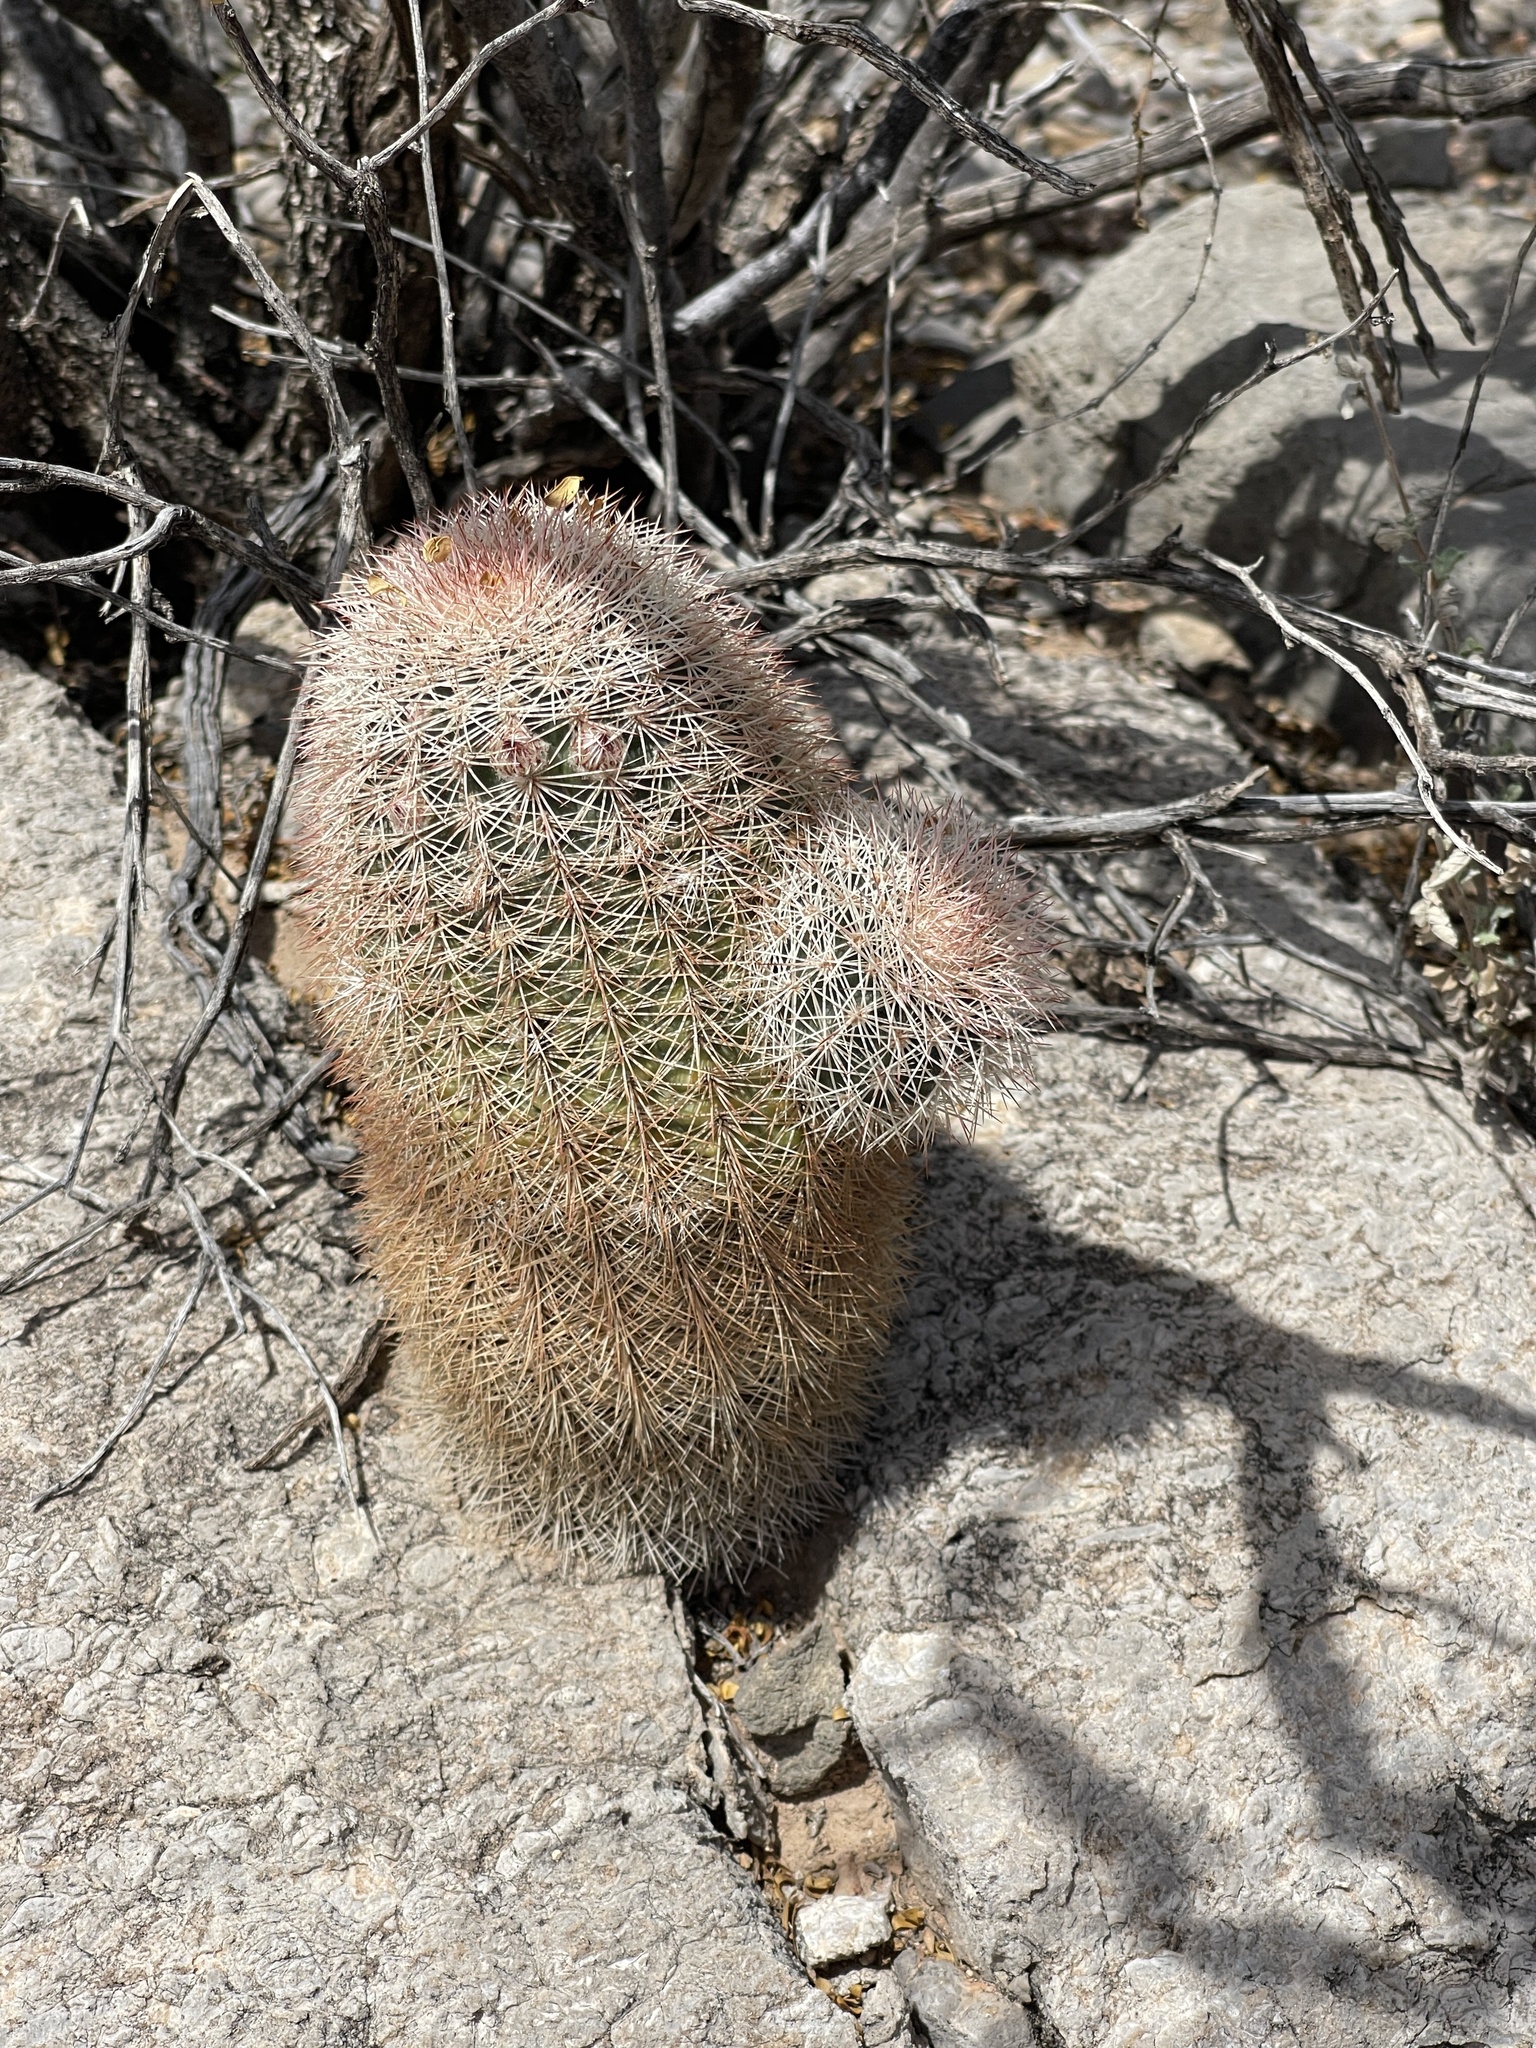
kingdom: Plantae
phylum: Tracheophyta
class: Magnoliopsida
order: Caryophyllales
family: Cactaceae
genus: Echinocereus
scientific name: Echinocereus dasyacanthus
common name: Spiny hedgehog cactus
